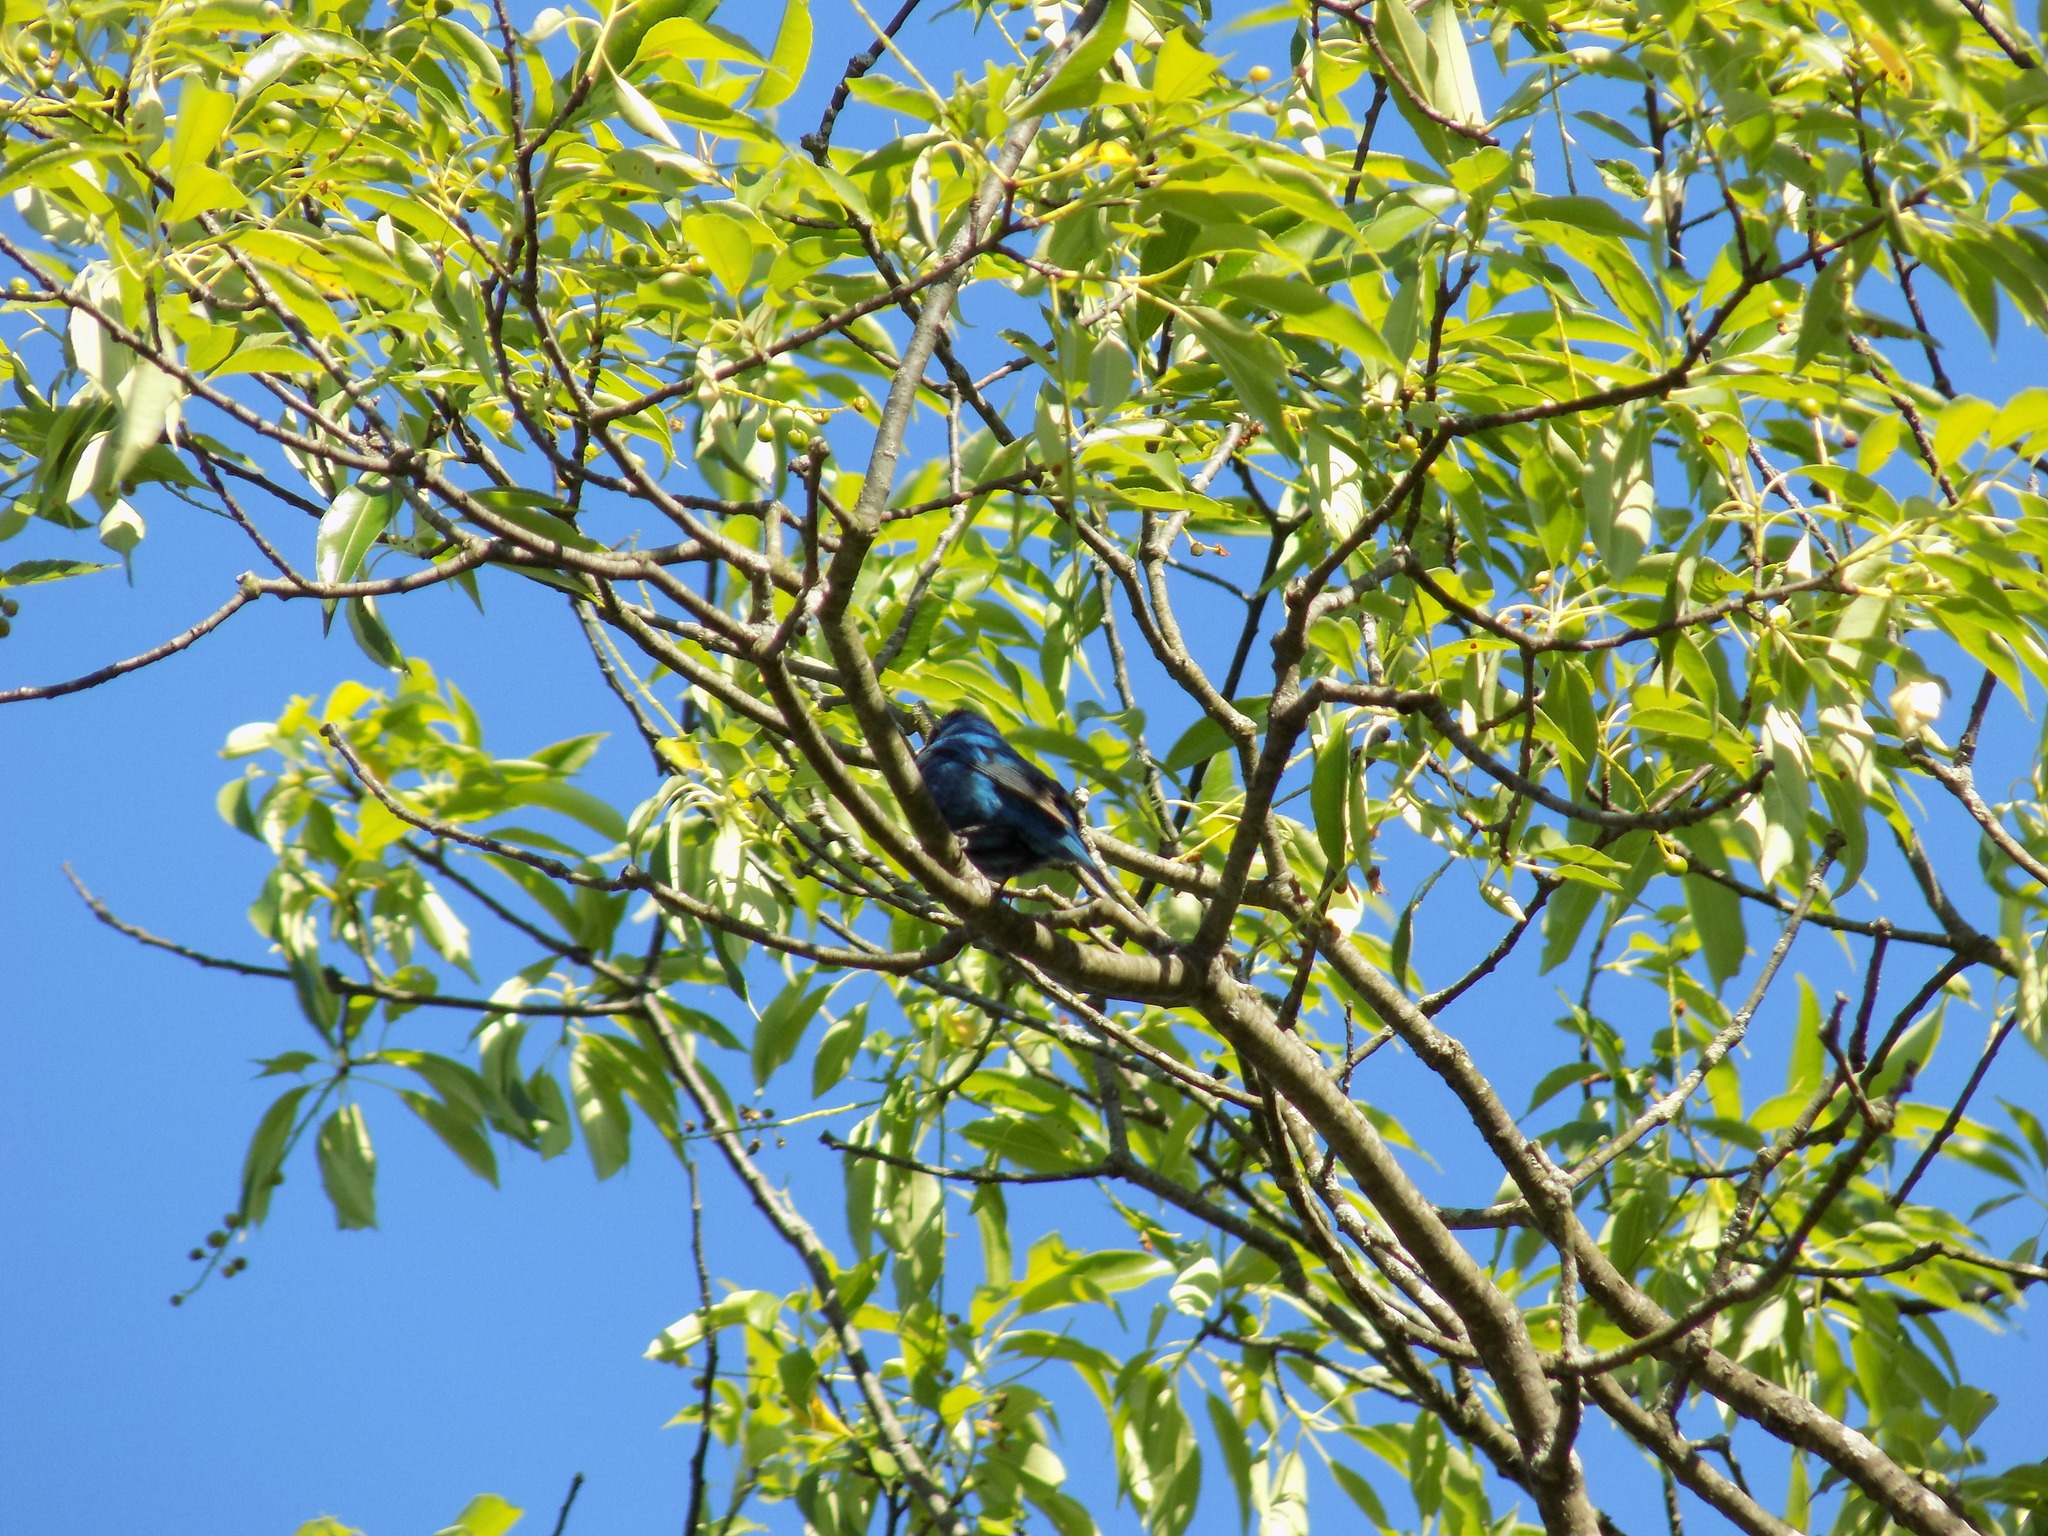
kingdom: Animalia
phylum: Chordata
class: Aves
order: Passeriformes
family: Cardinalidae
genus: Passerina
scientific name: Passerina cyanea
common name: Indigo bunting
